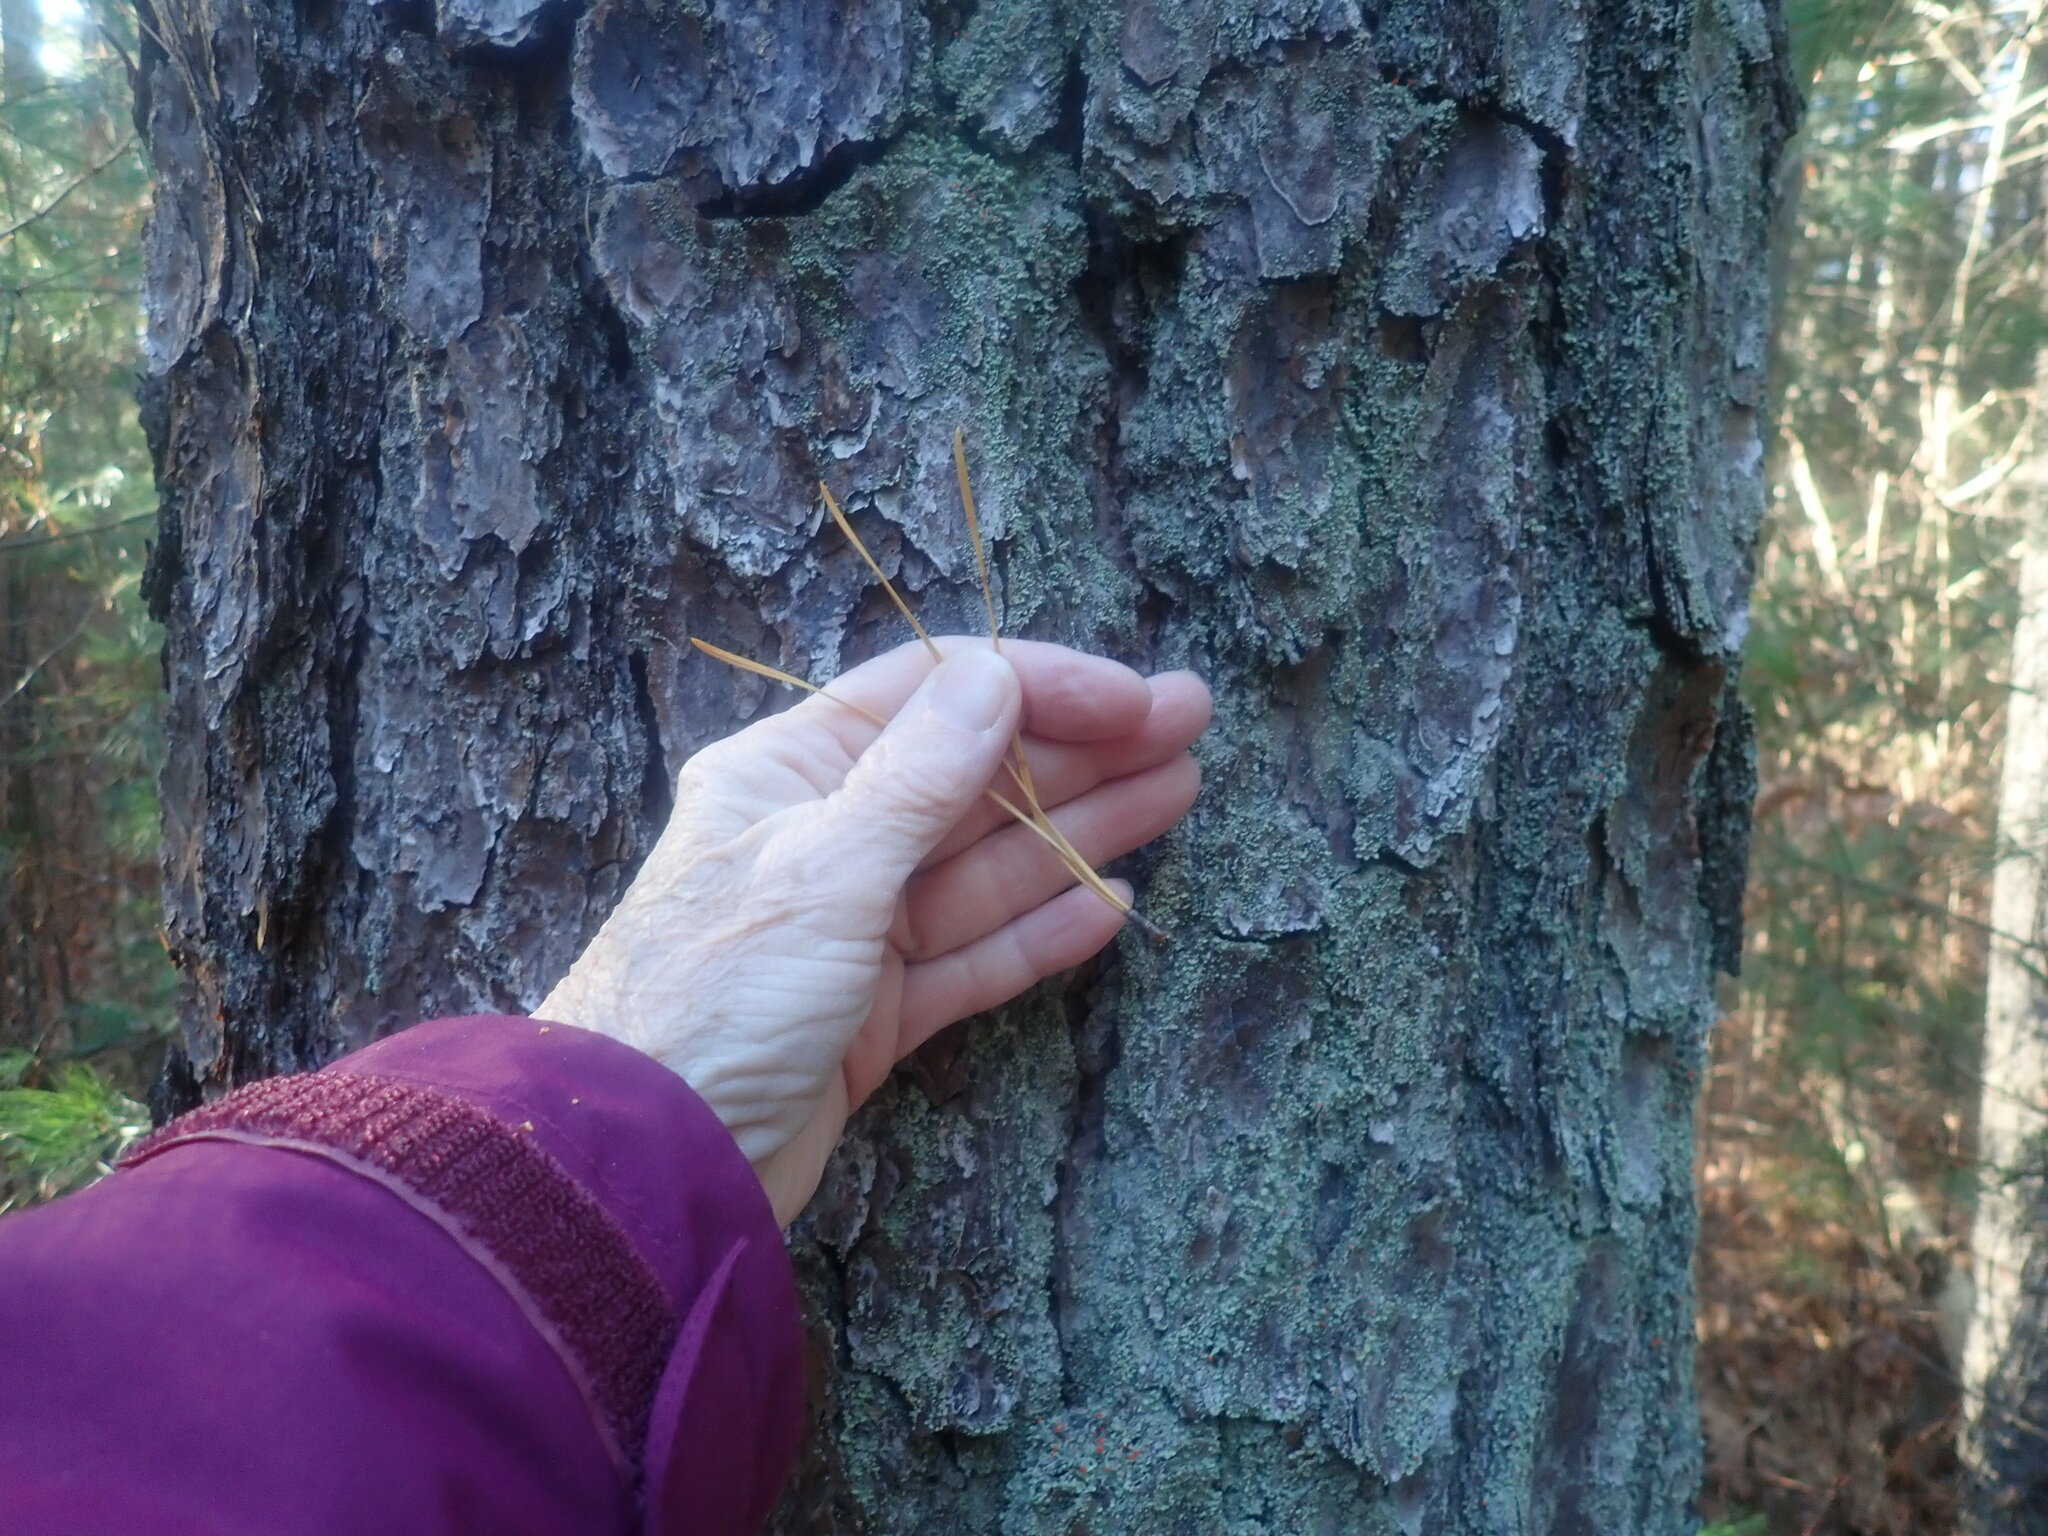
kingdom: Plantae
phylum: Tracheophyta
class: Pinopsida
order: Pinales
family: Pinaceae
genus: Pinus
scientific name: Pinus rigida
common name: Pitch pine
